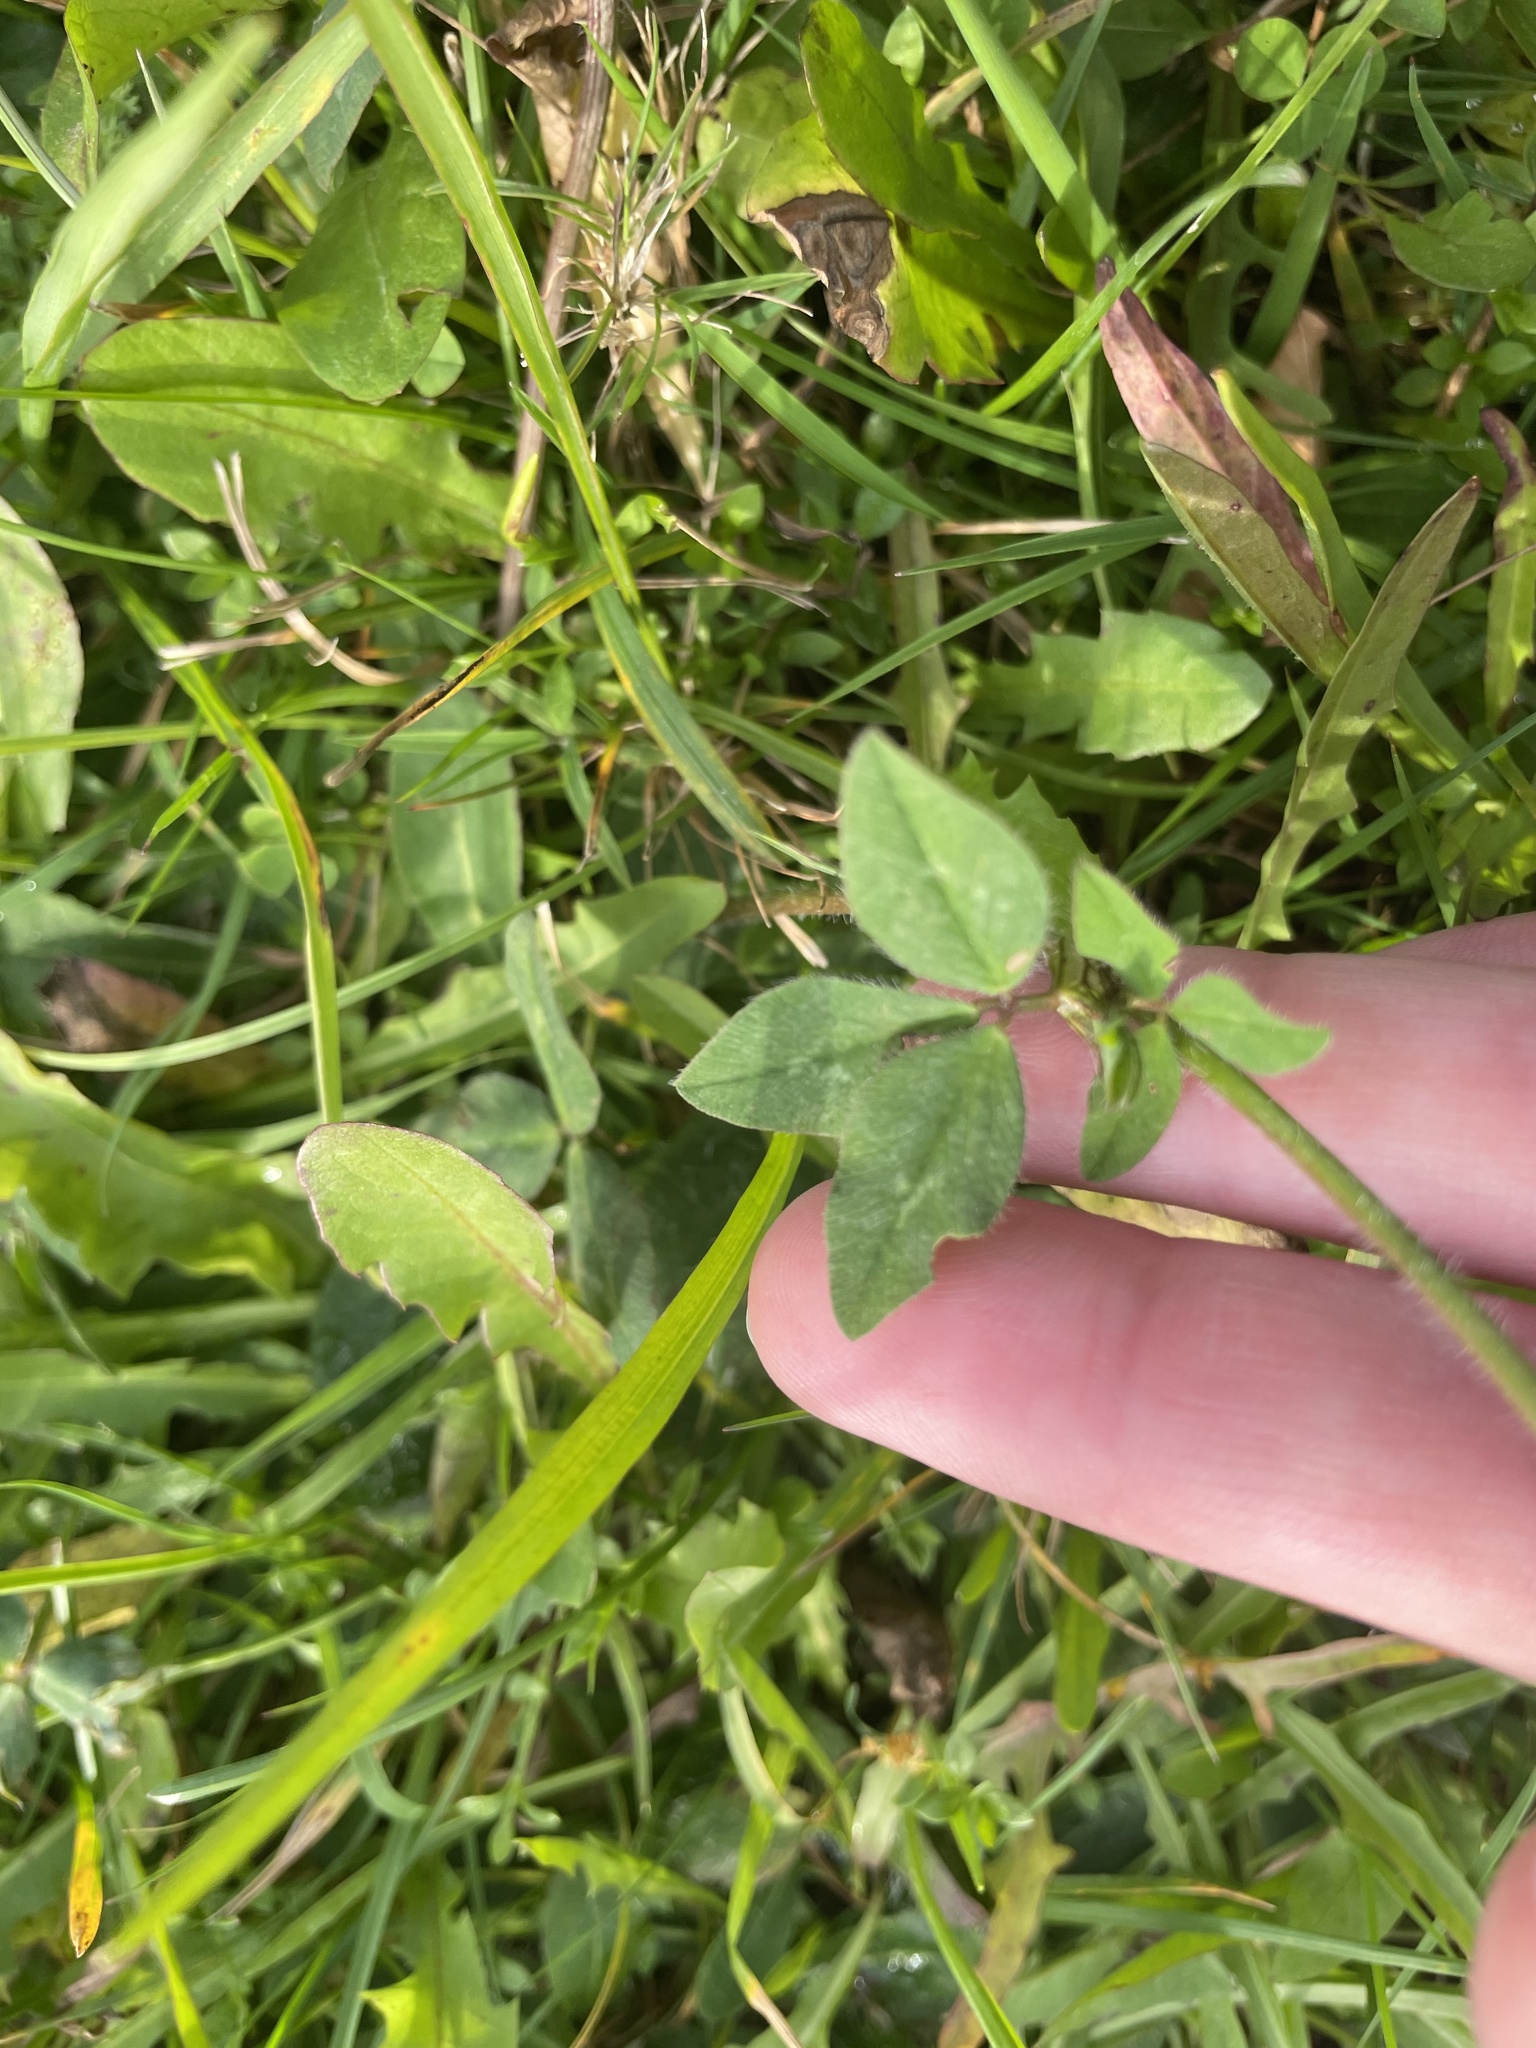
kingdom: Plantae
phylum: Tracheophyta
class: Magnoliopsida
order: Fabales
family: Fabaceae
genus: Trifolium
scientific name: Trifolium pratense
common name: Red clover
